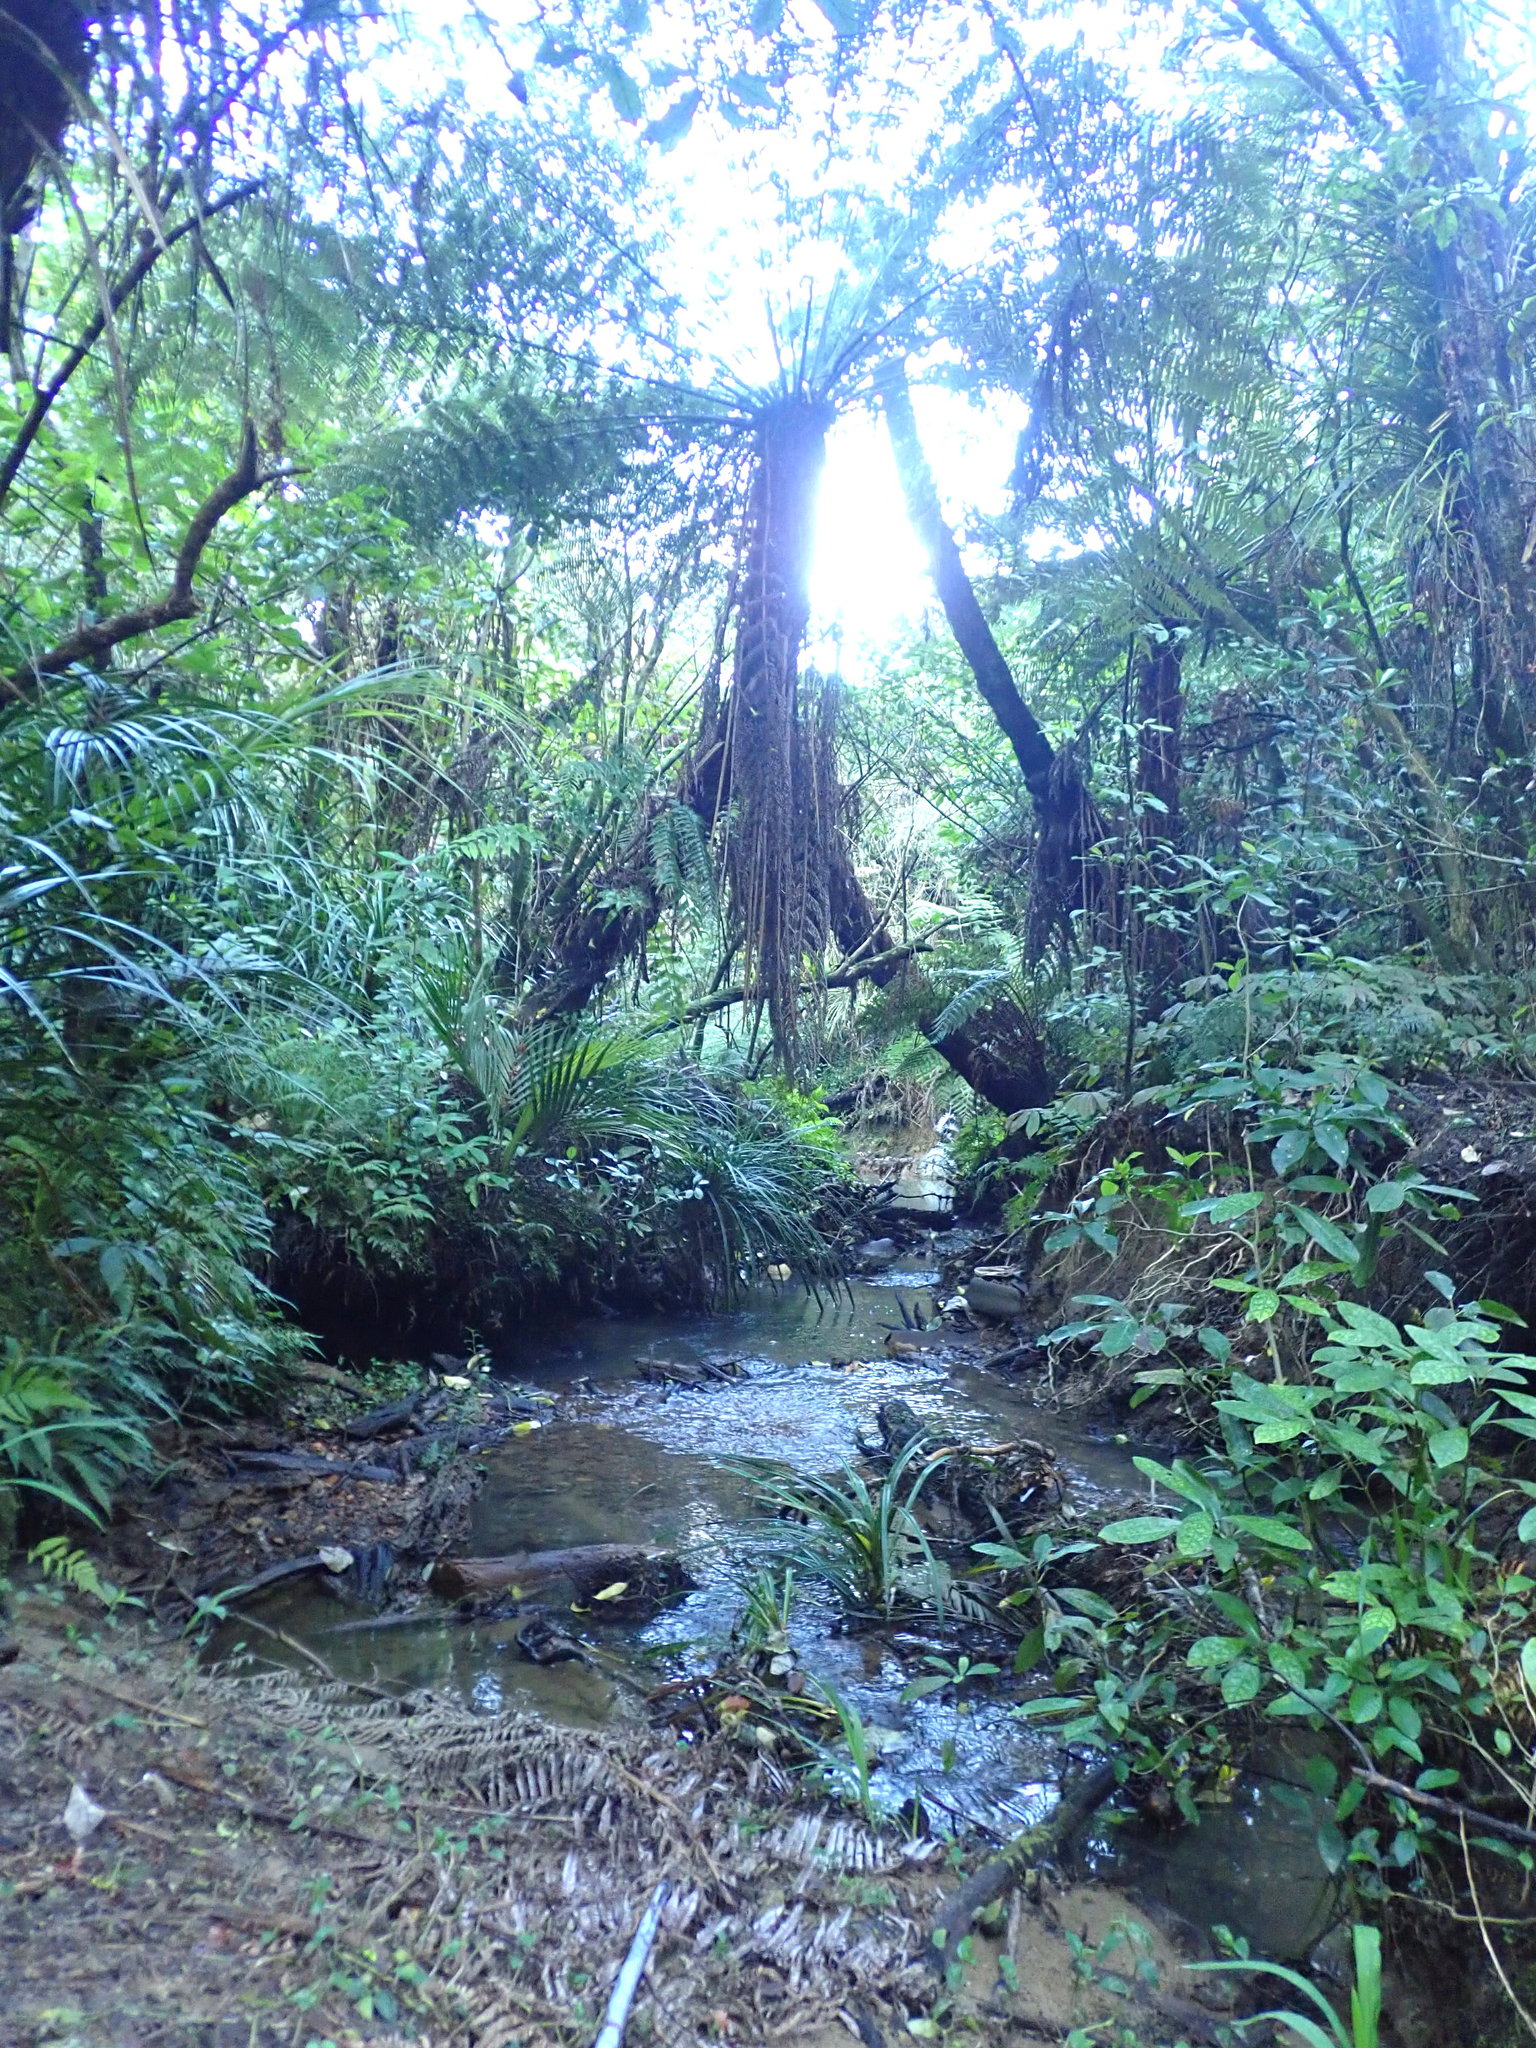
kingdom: Plantae
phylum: Tracheophyta
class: Liliopsida
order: Pandanales
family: Pandanaceae
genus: Freycinetia
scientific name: Freycinetia banksii
